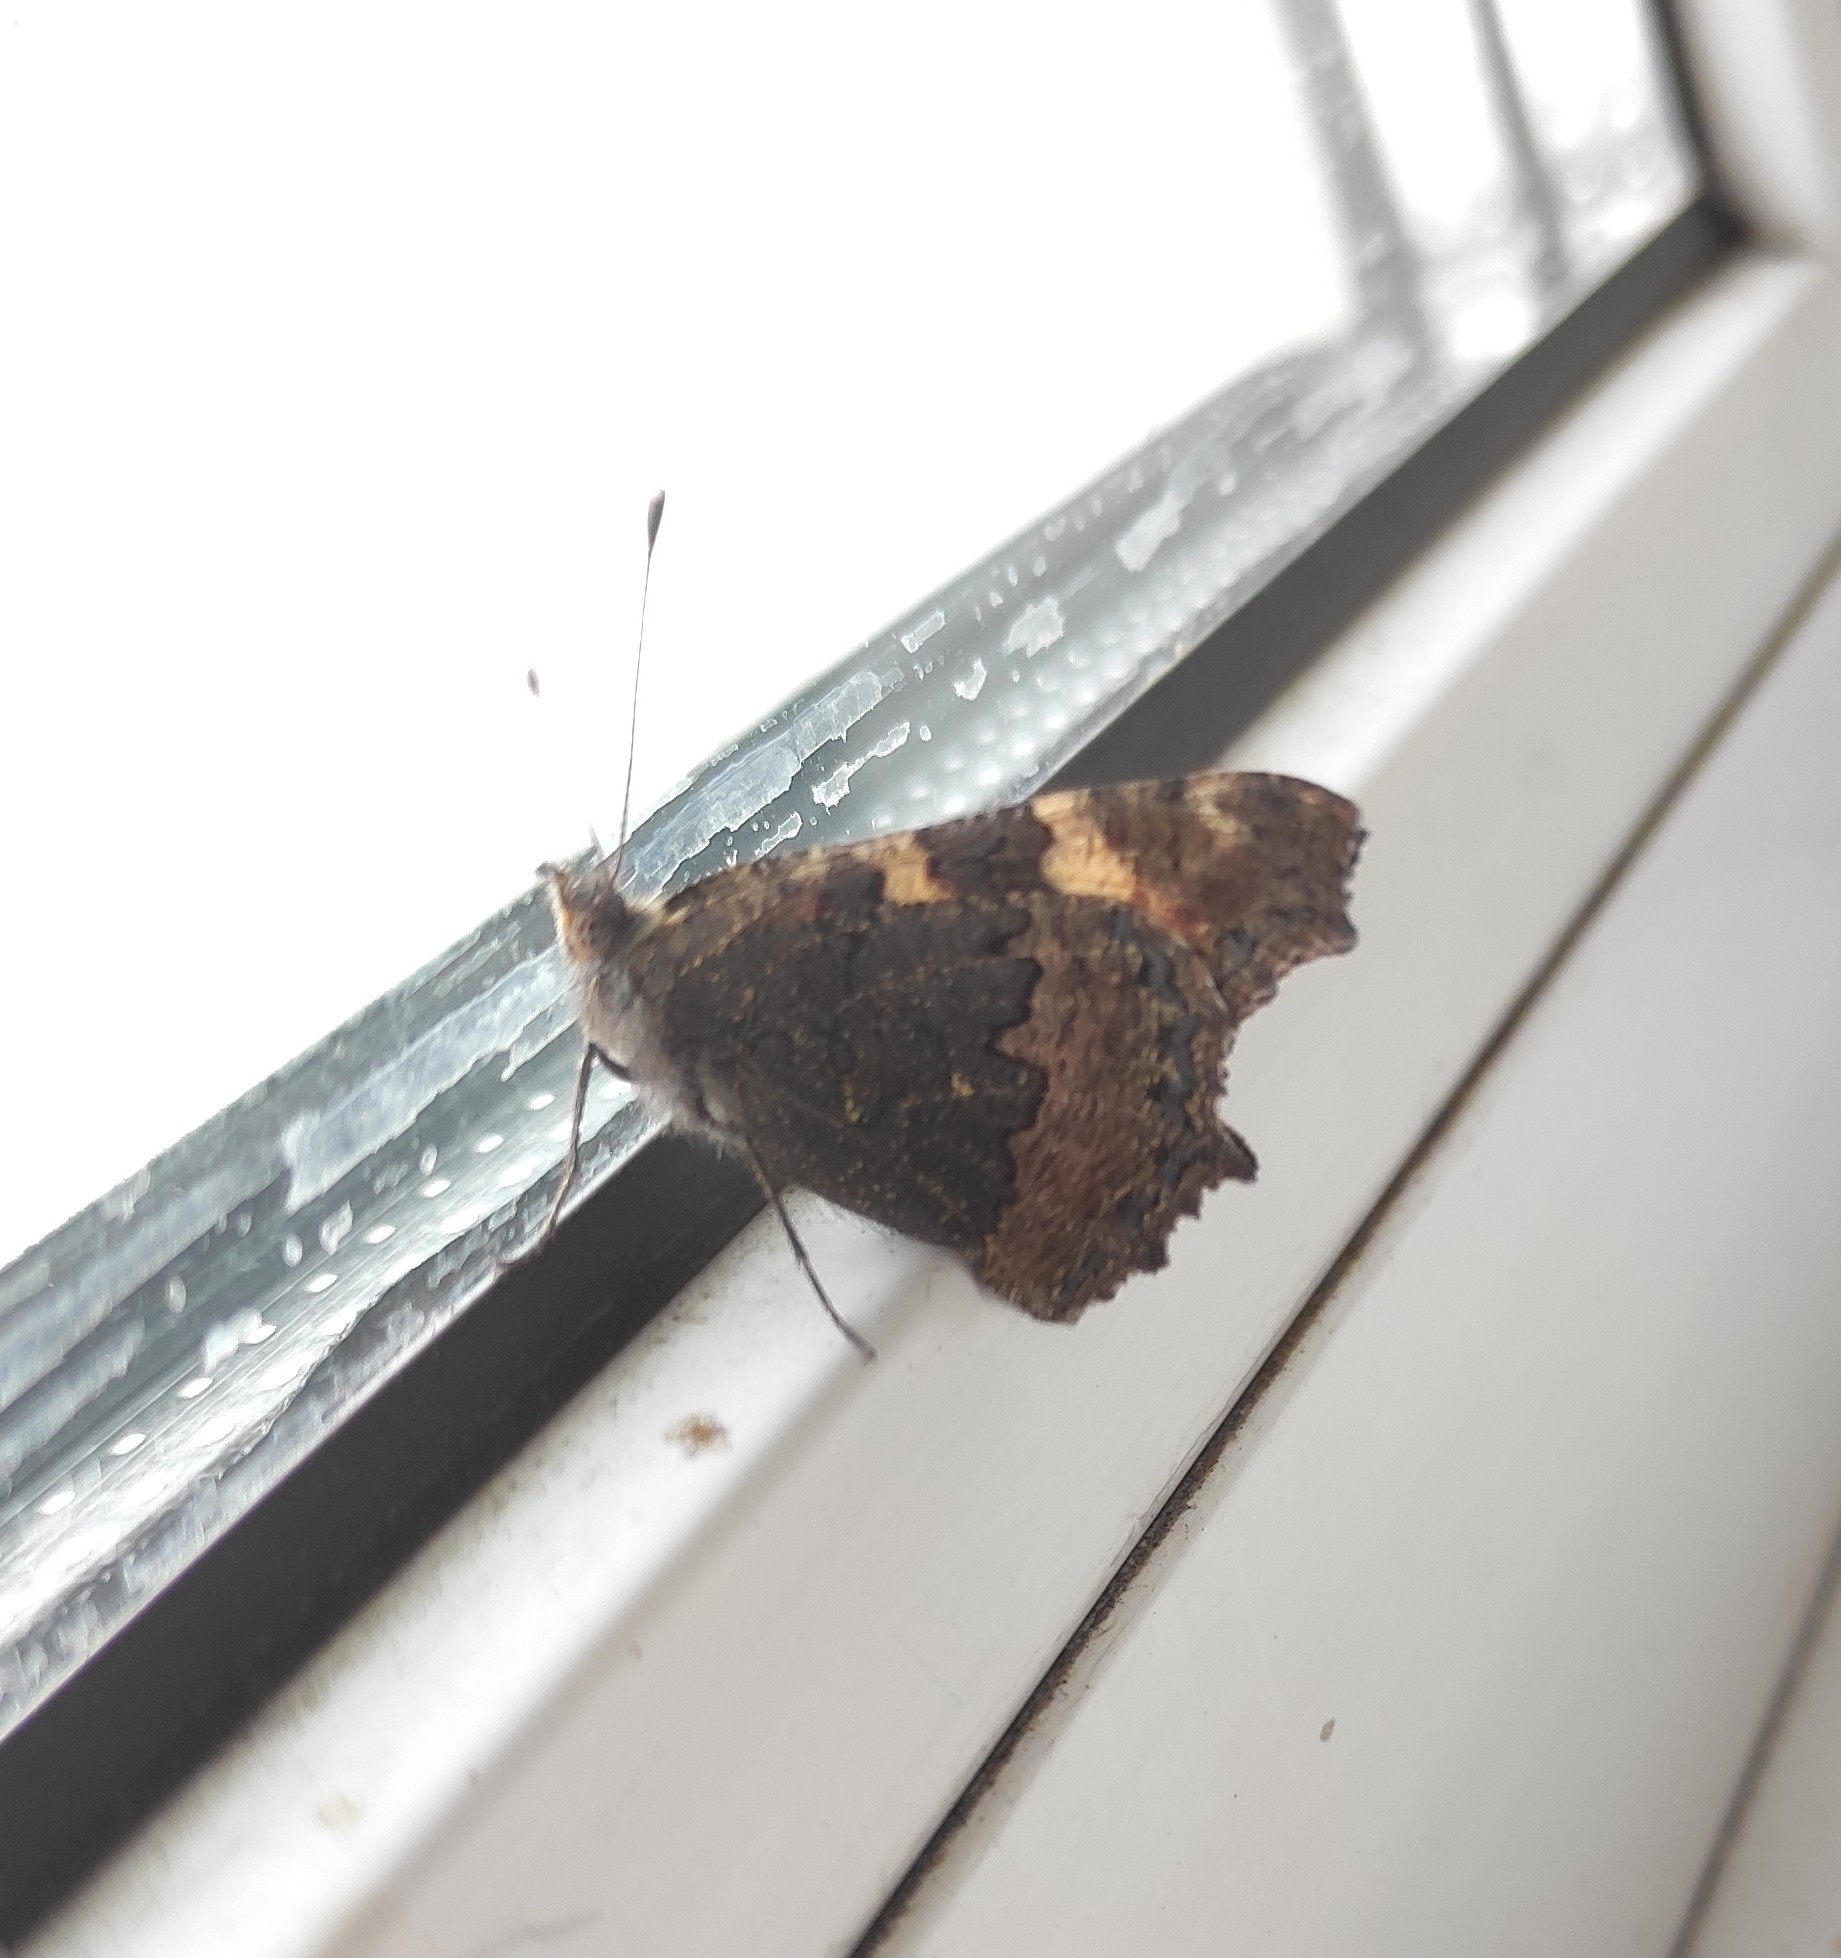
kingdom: Animalia
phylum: Arthropoda
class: Insecta
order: Lepidoptera
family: Nymphalidae
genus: Aglais
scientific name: Aglais urticae
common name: Small tortoiseshell
